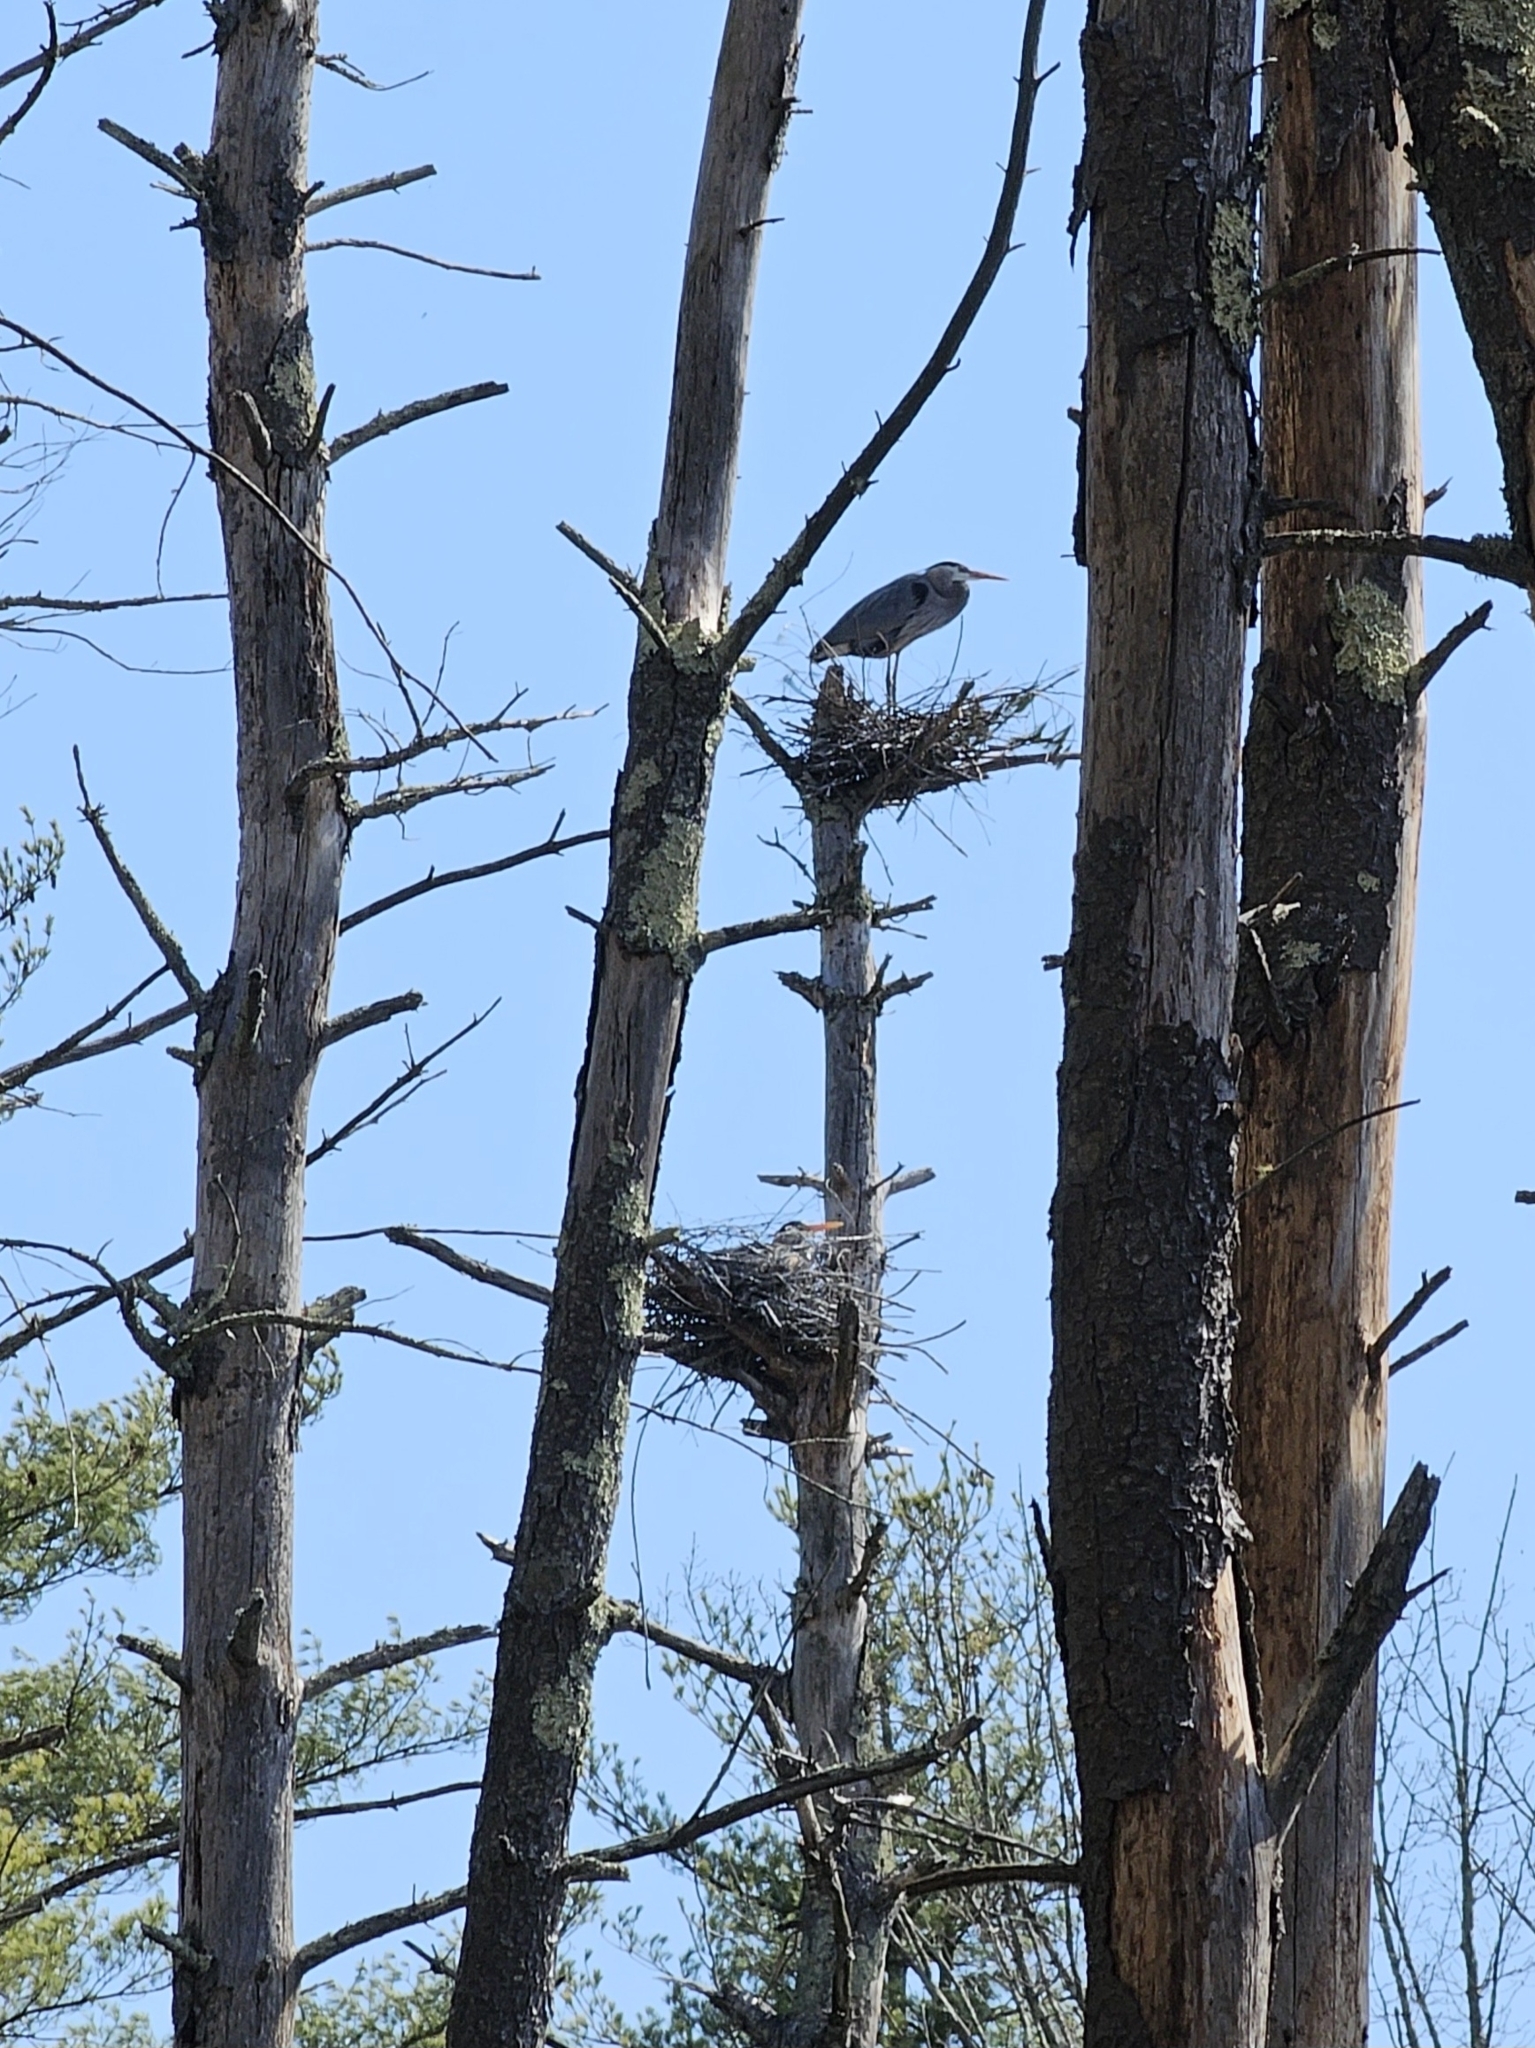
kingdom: Animalia
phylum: Chordata
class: Aves
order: Pelecaniformes
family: Ardeidae
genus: Ardea
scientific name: Ardea herodias
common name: Great blue heron
